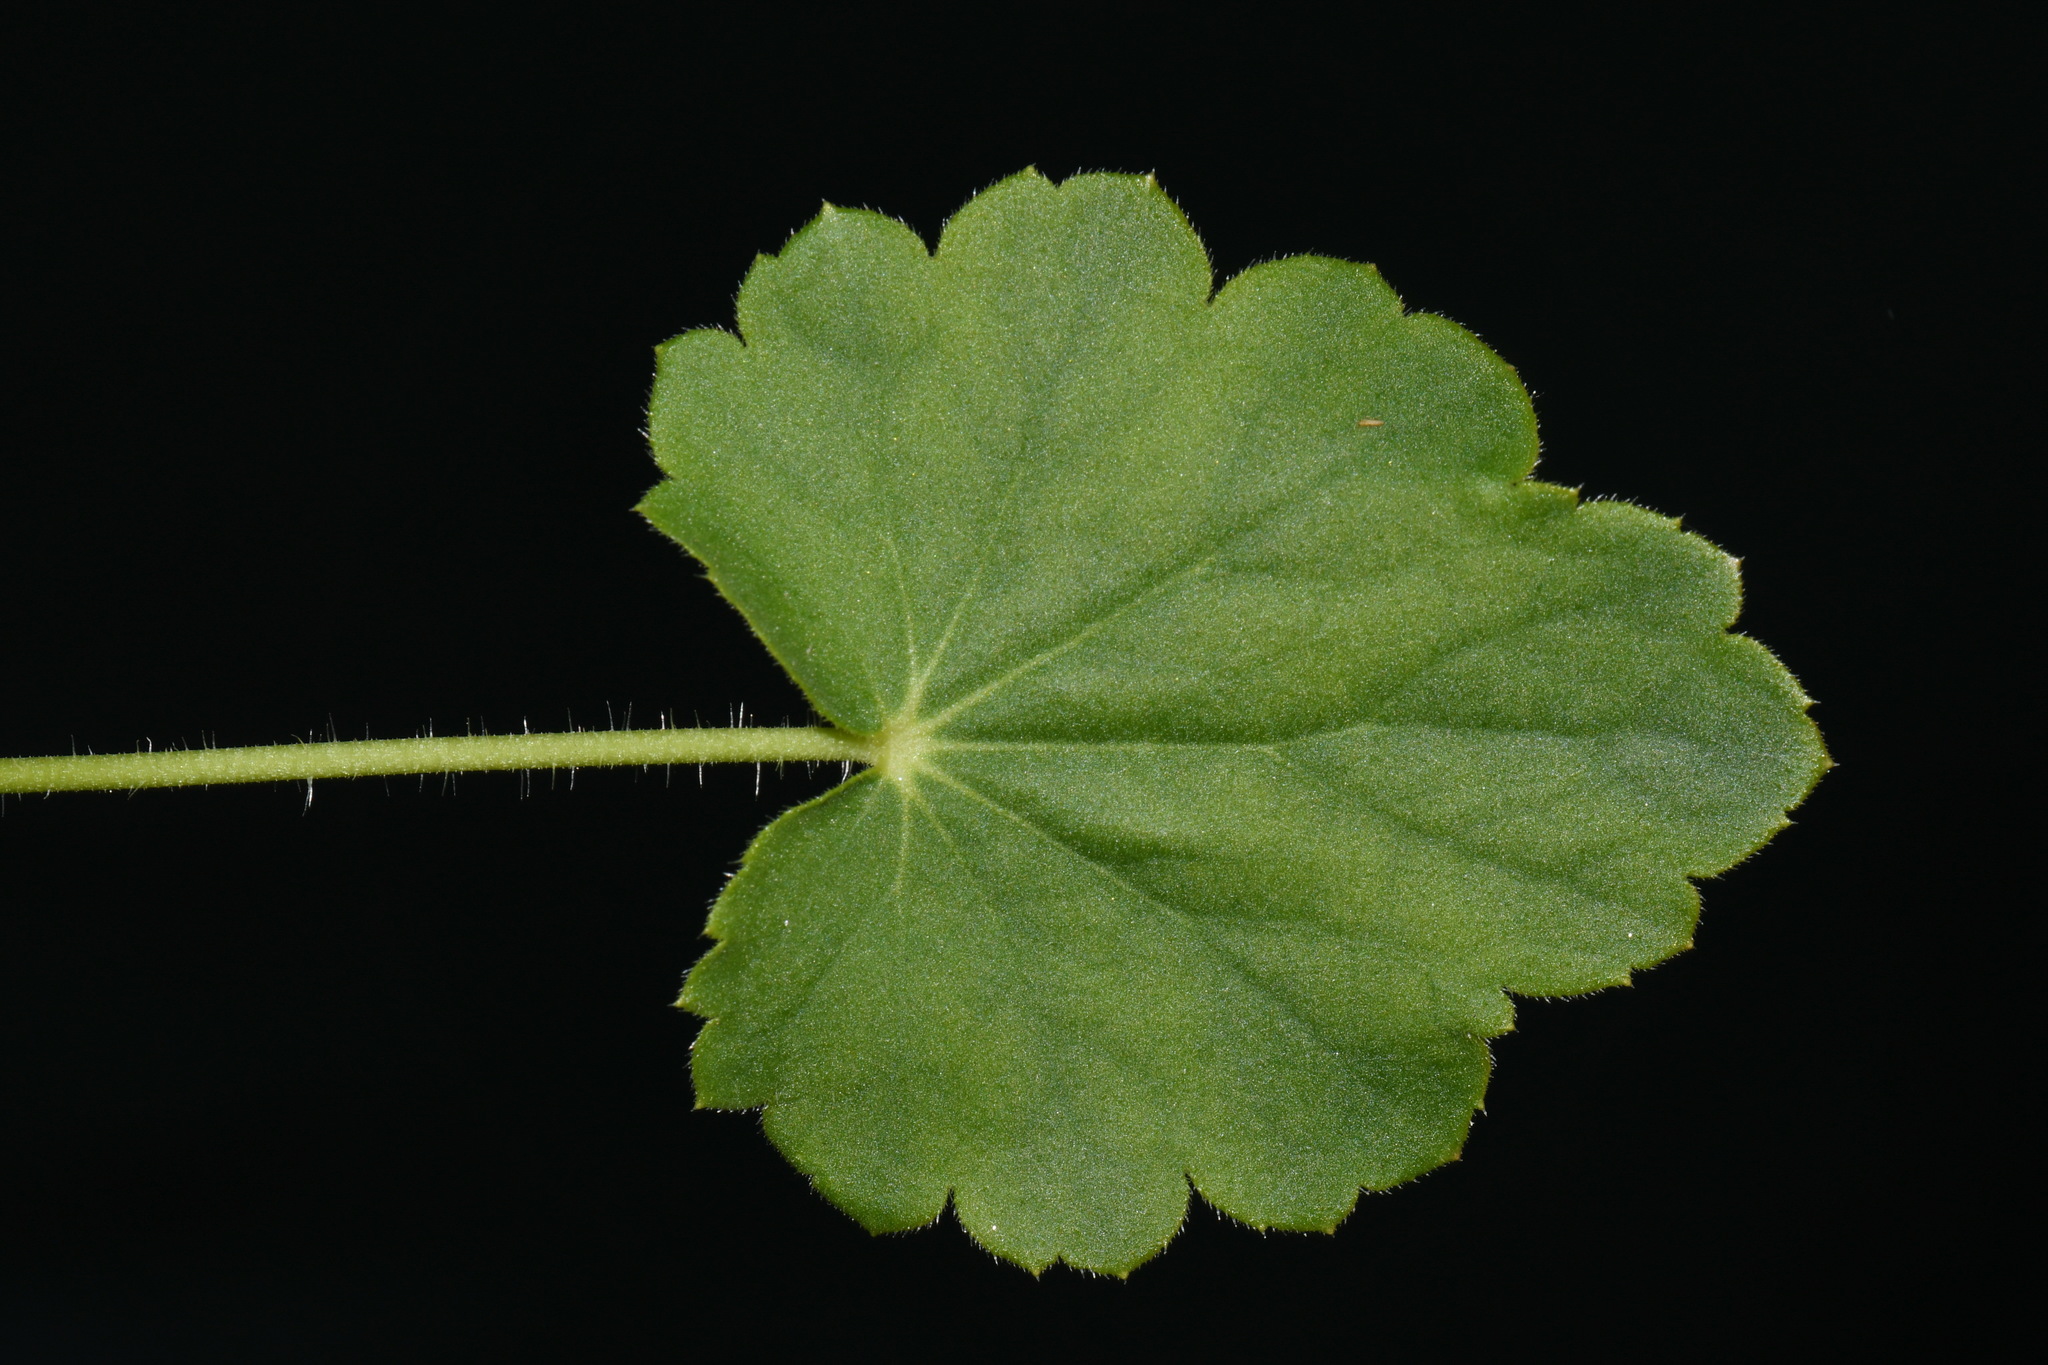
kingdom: Plantae
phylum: Tracheophyta
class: Magnoliopsida
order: Saxifragales
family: Saxifragaceae
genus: Heuchera
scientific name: Heuchera richardsonii
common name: Richardson's alumroot
